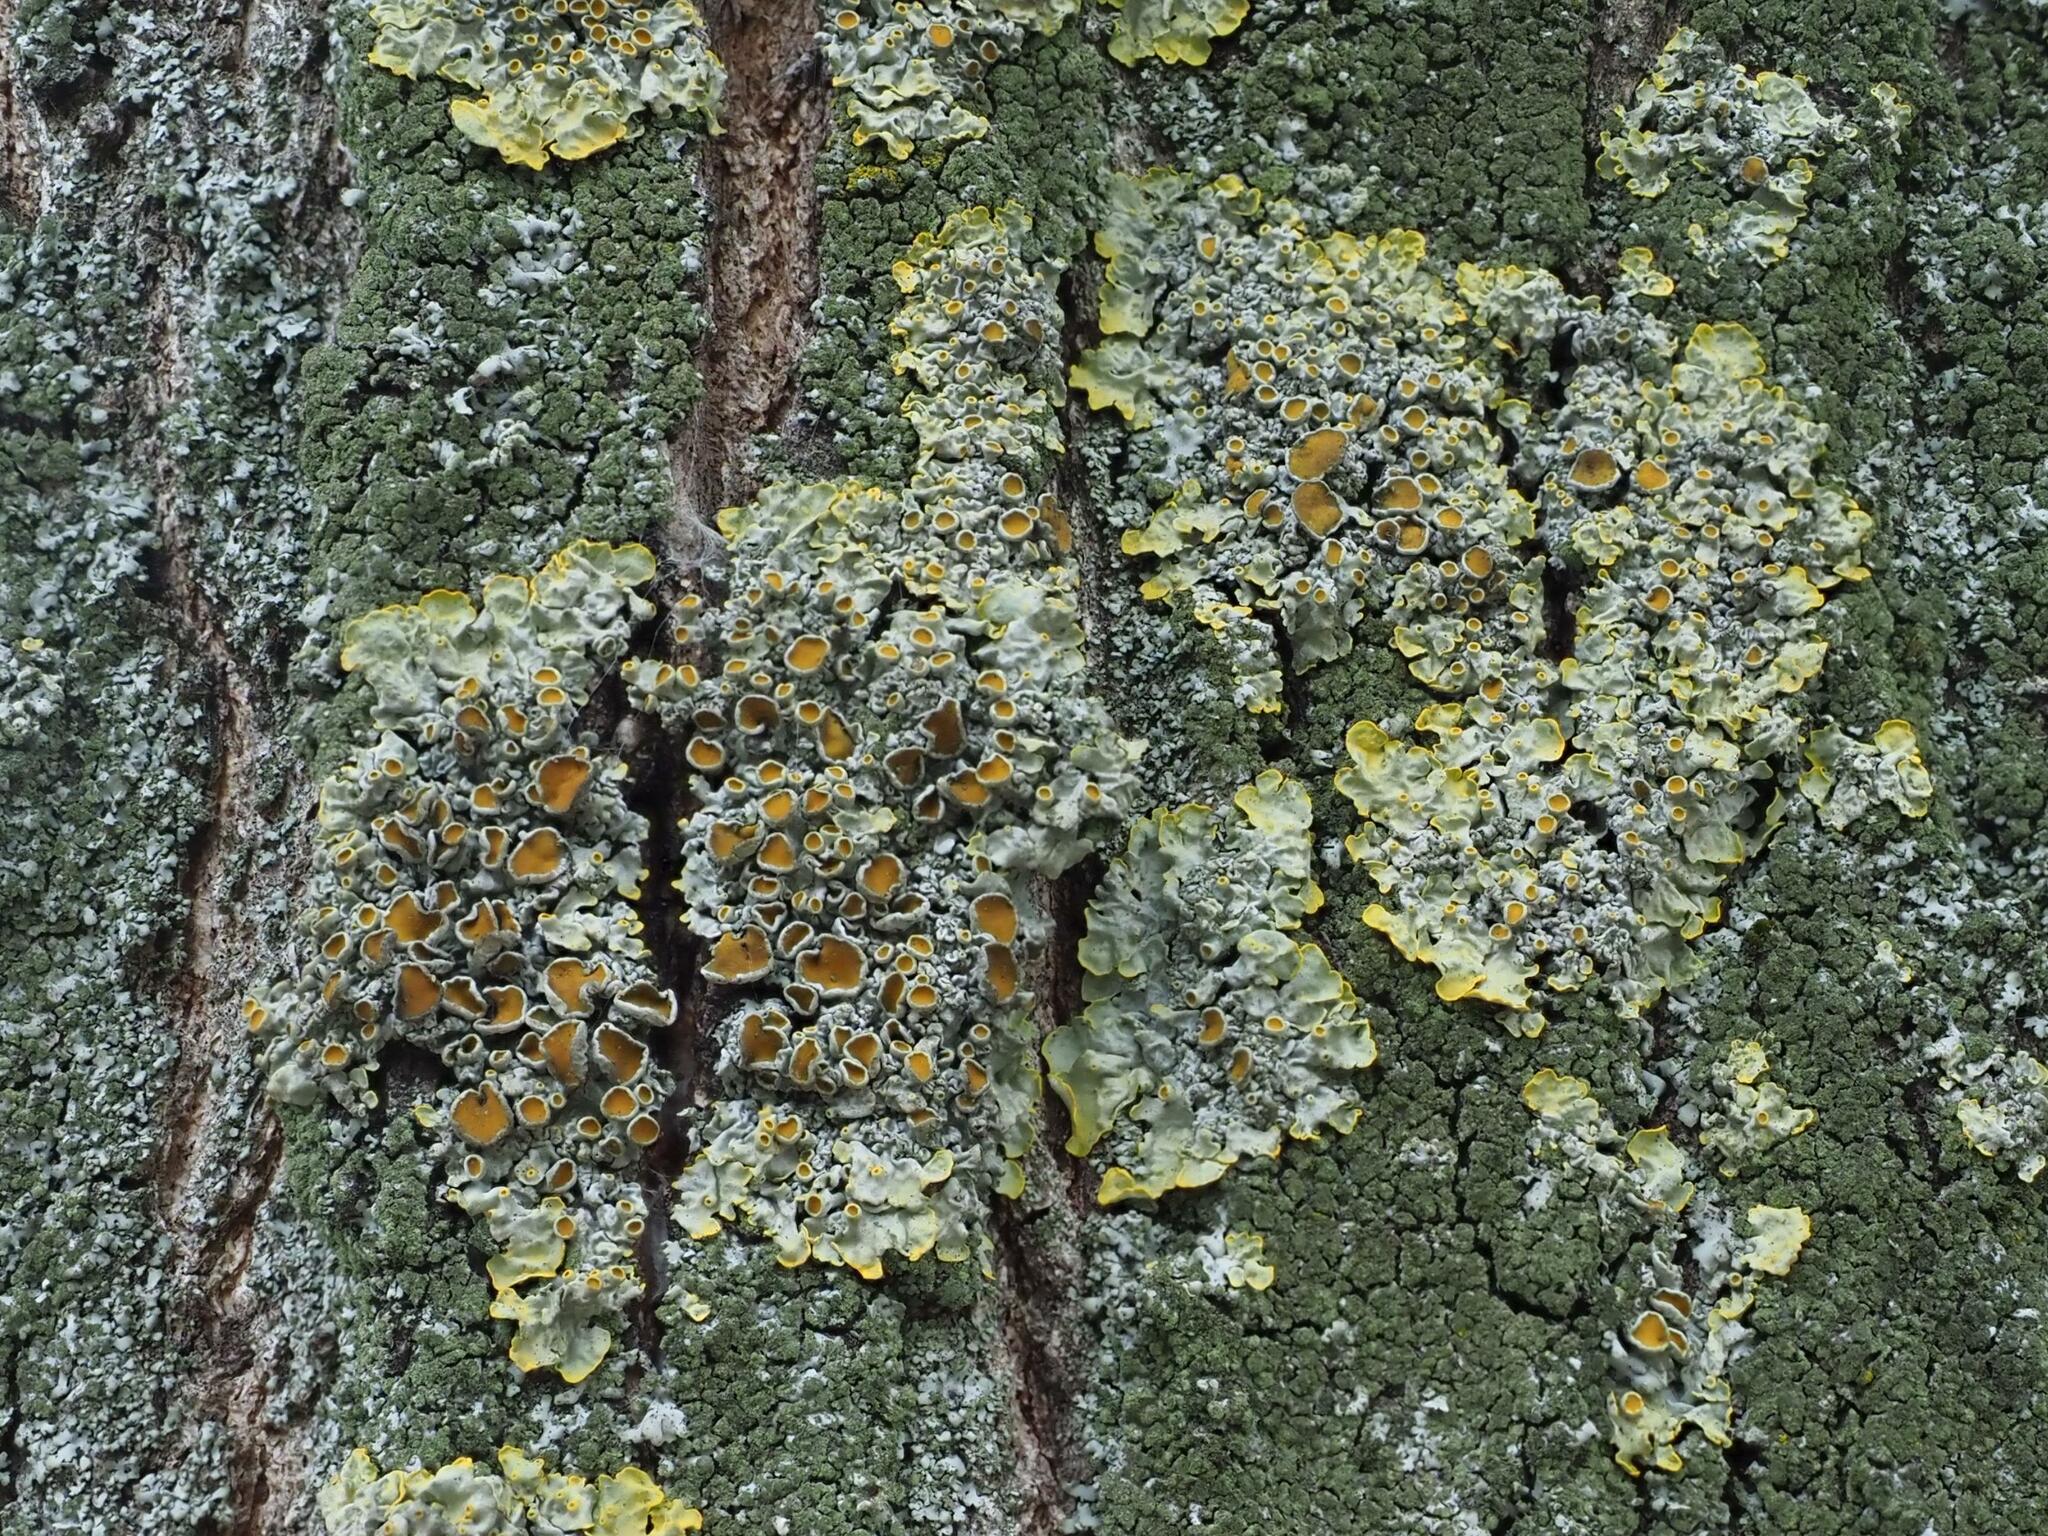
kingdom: Fungi
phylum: Ascomycota
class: Lecanoromycetes
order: Teloschistales
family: Teloschistaceae
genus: Xanthoria
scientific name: Xanthoria parietina
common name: Common orange lichen
